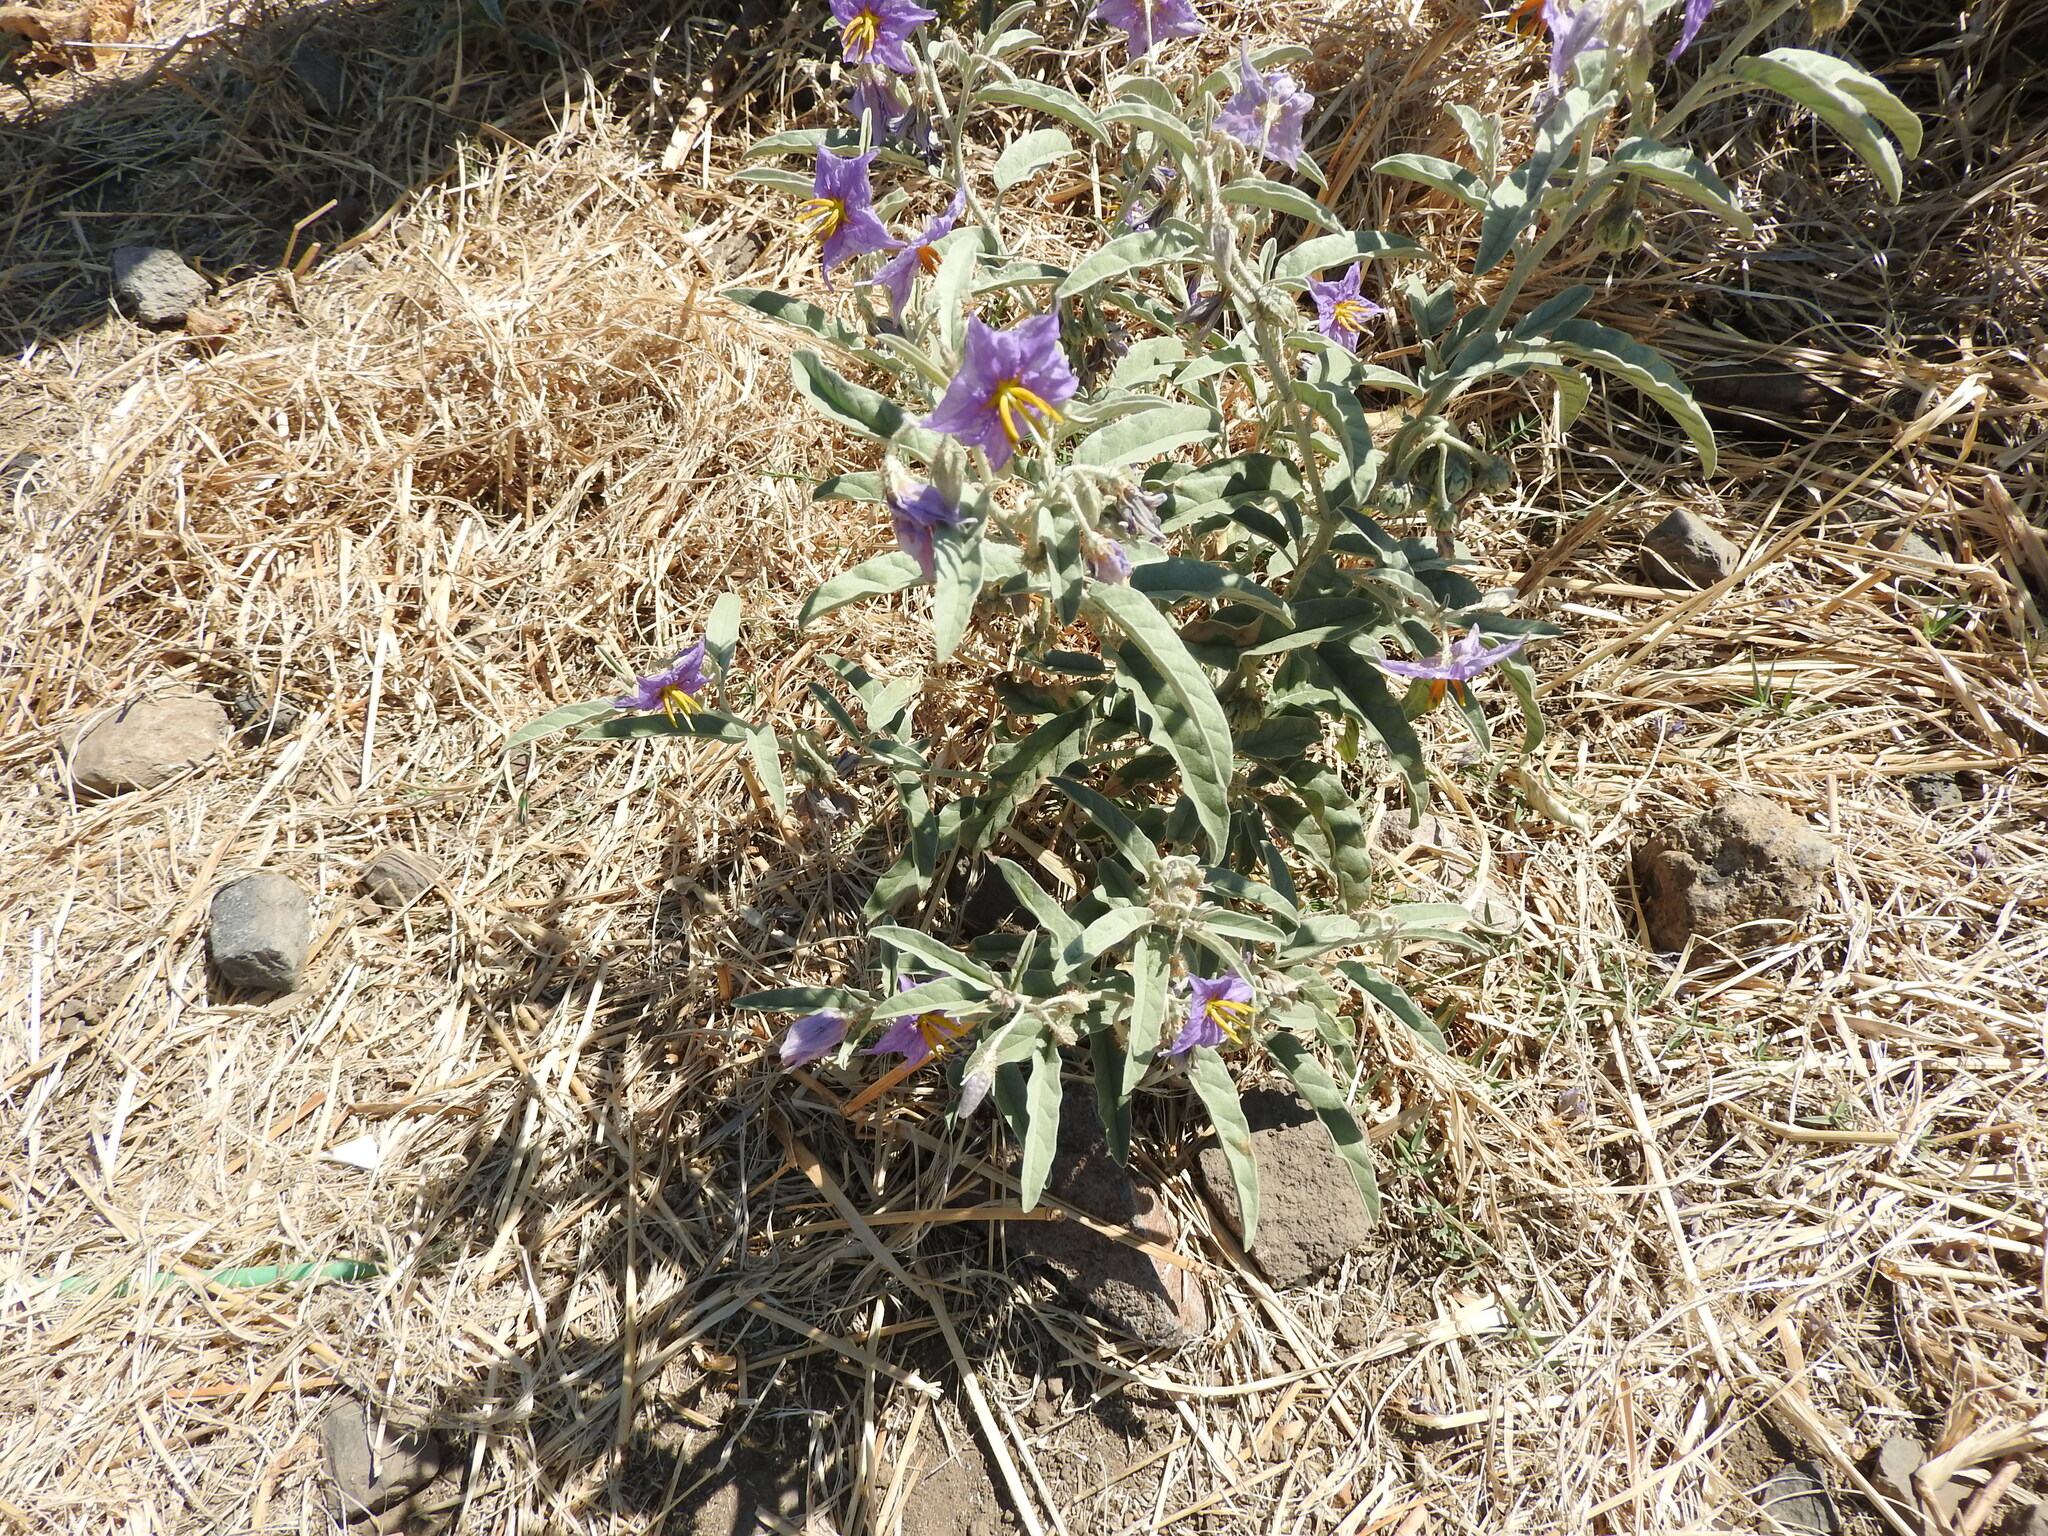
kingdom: Plantae
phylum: Tracheophyta
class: Magnoliopsida
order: Solanales
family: Solanaceae
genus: Solanum
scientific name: Solanum elaeagnifolium
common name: Silverleaf nightshade
